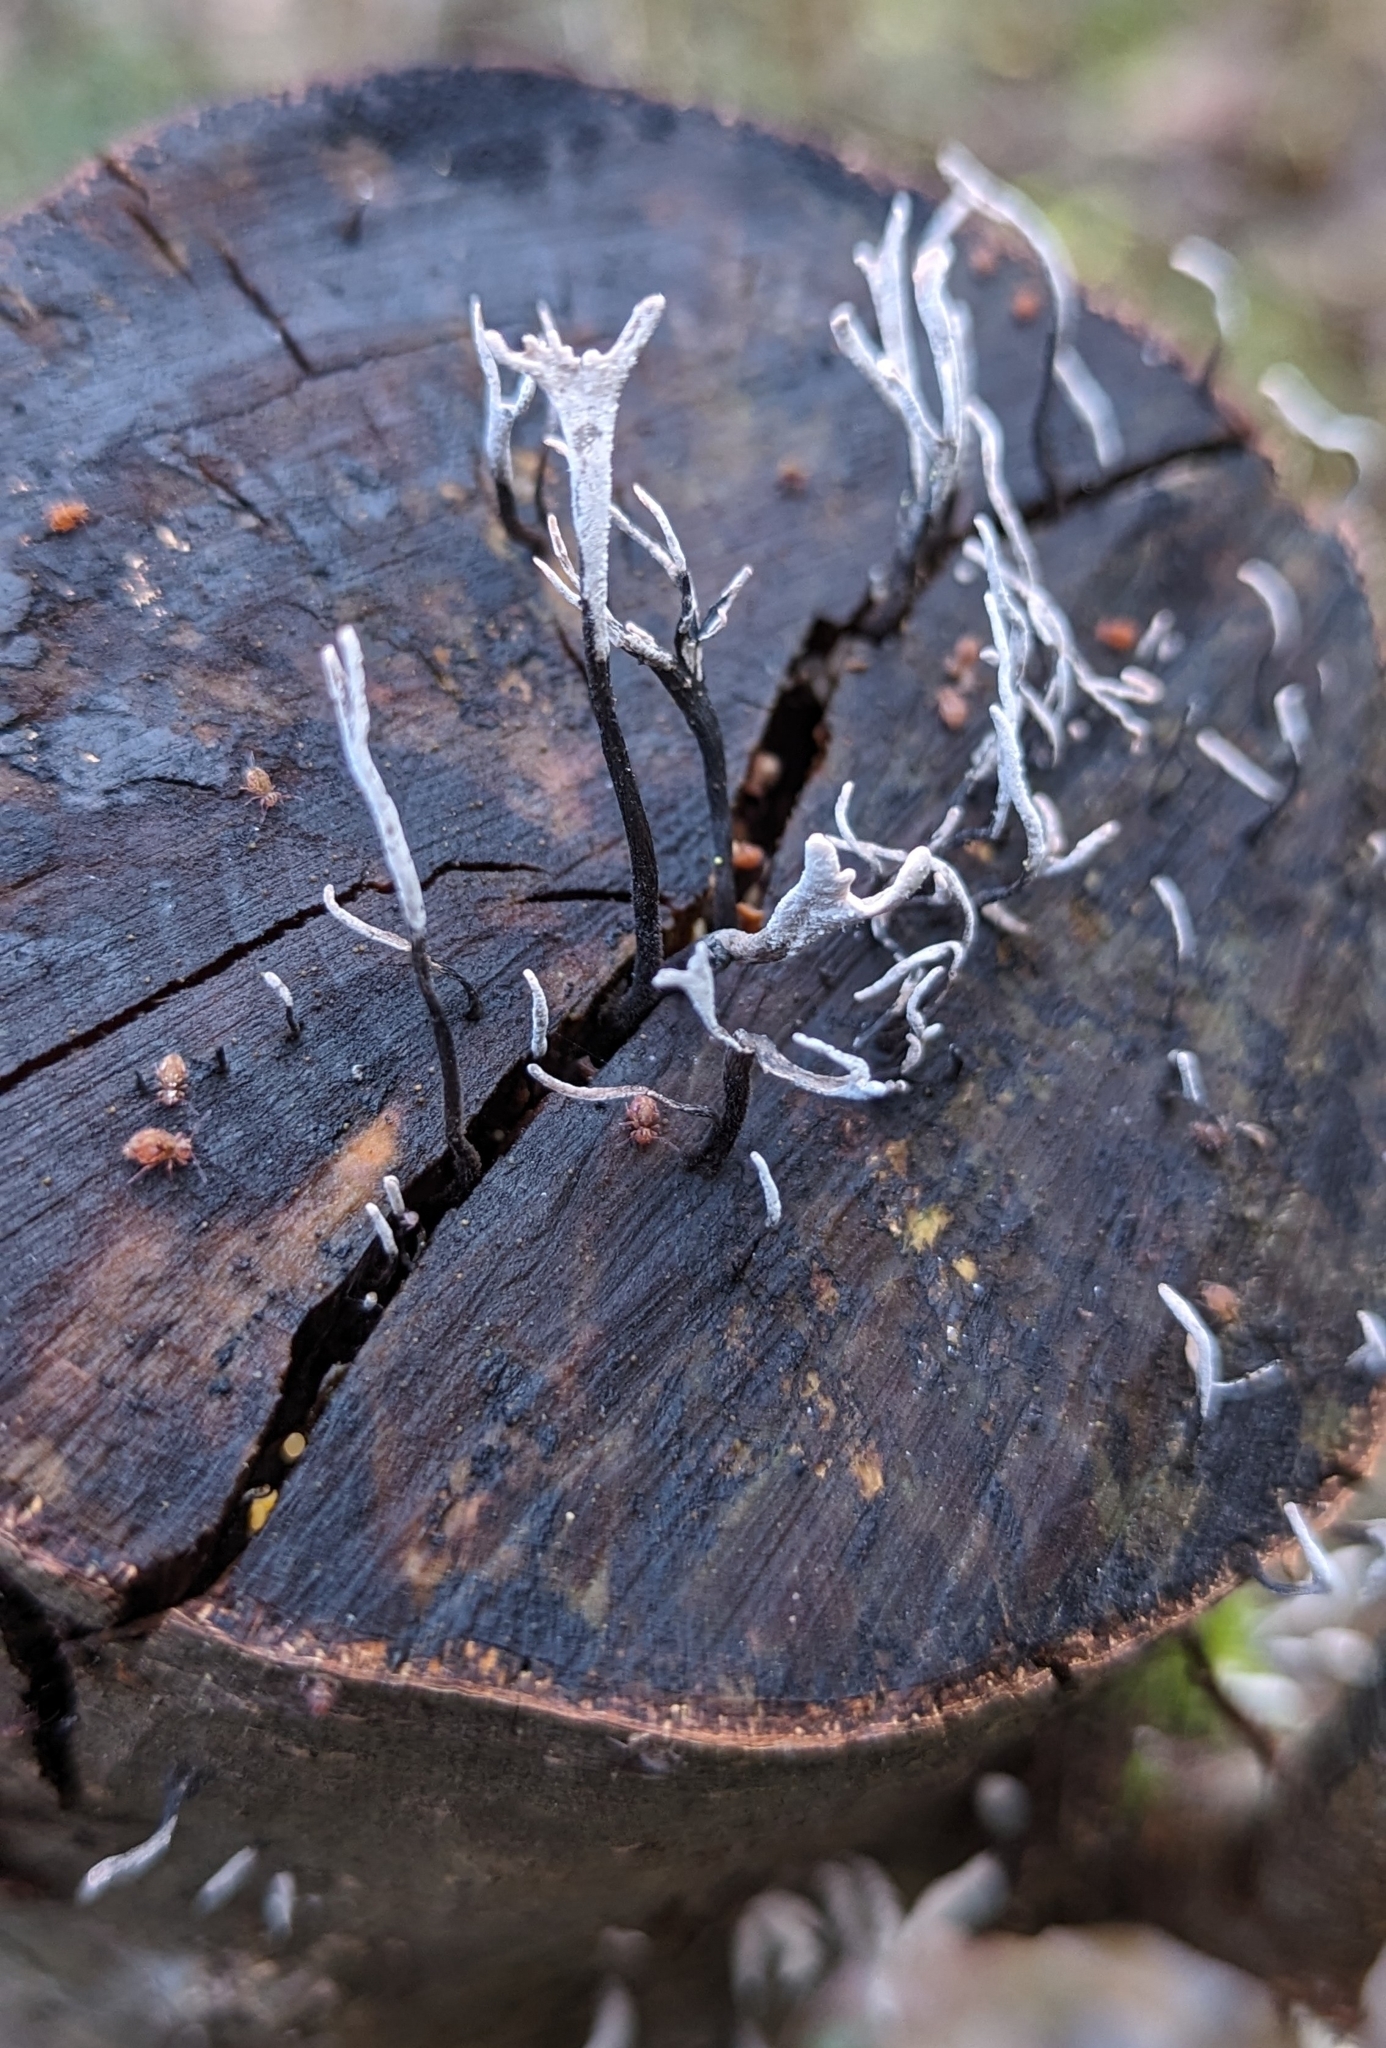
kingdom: Fungi
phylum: Ascomycota
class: Sordariomycetes
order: Xylariales
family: Xylariaceae
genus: Xylaria
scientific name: Xylaria hypoxylon
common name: Candle-snuff fungus
